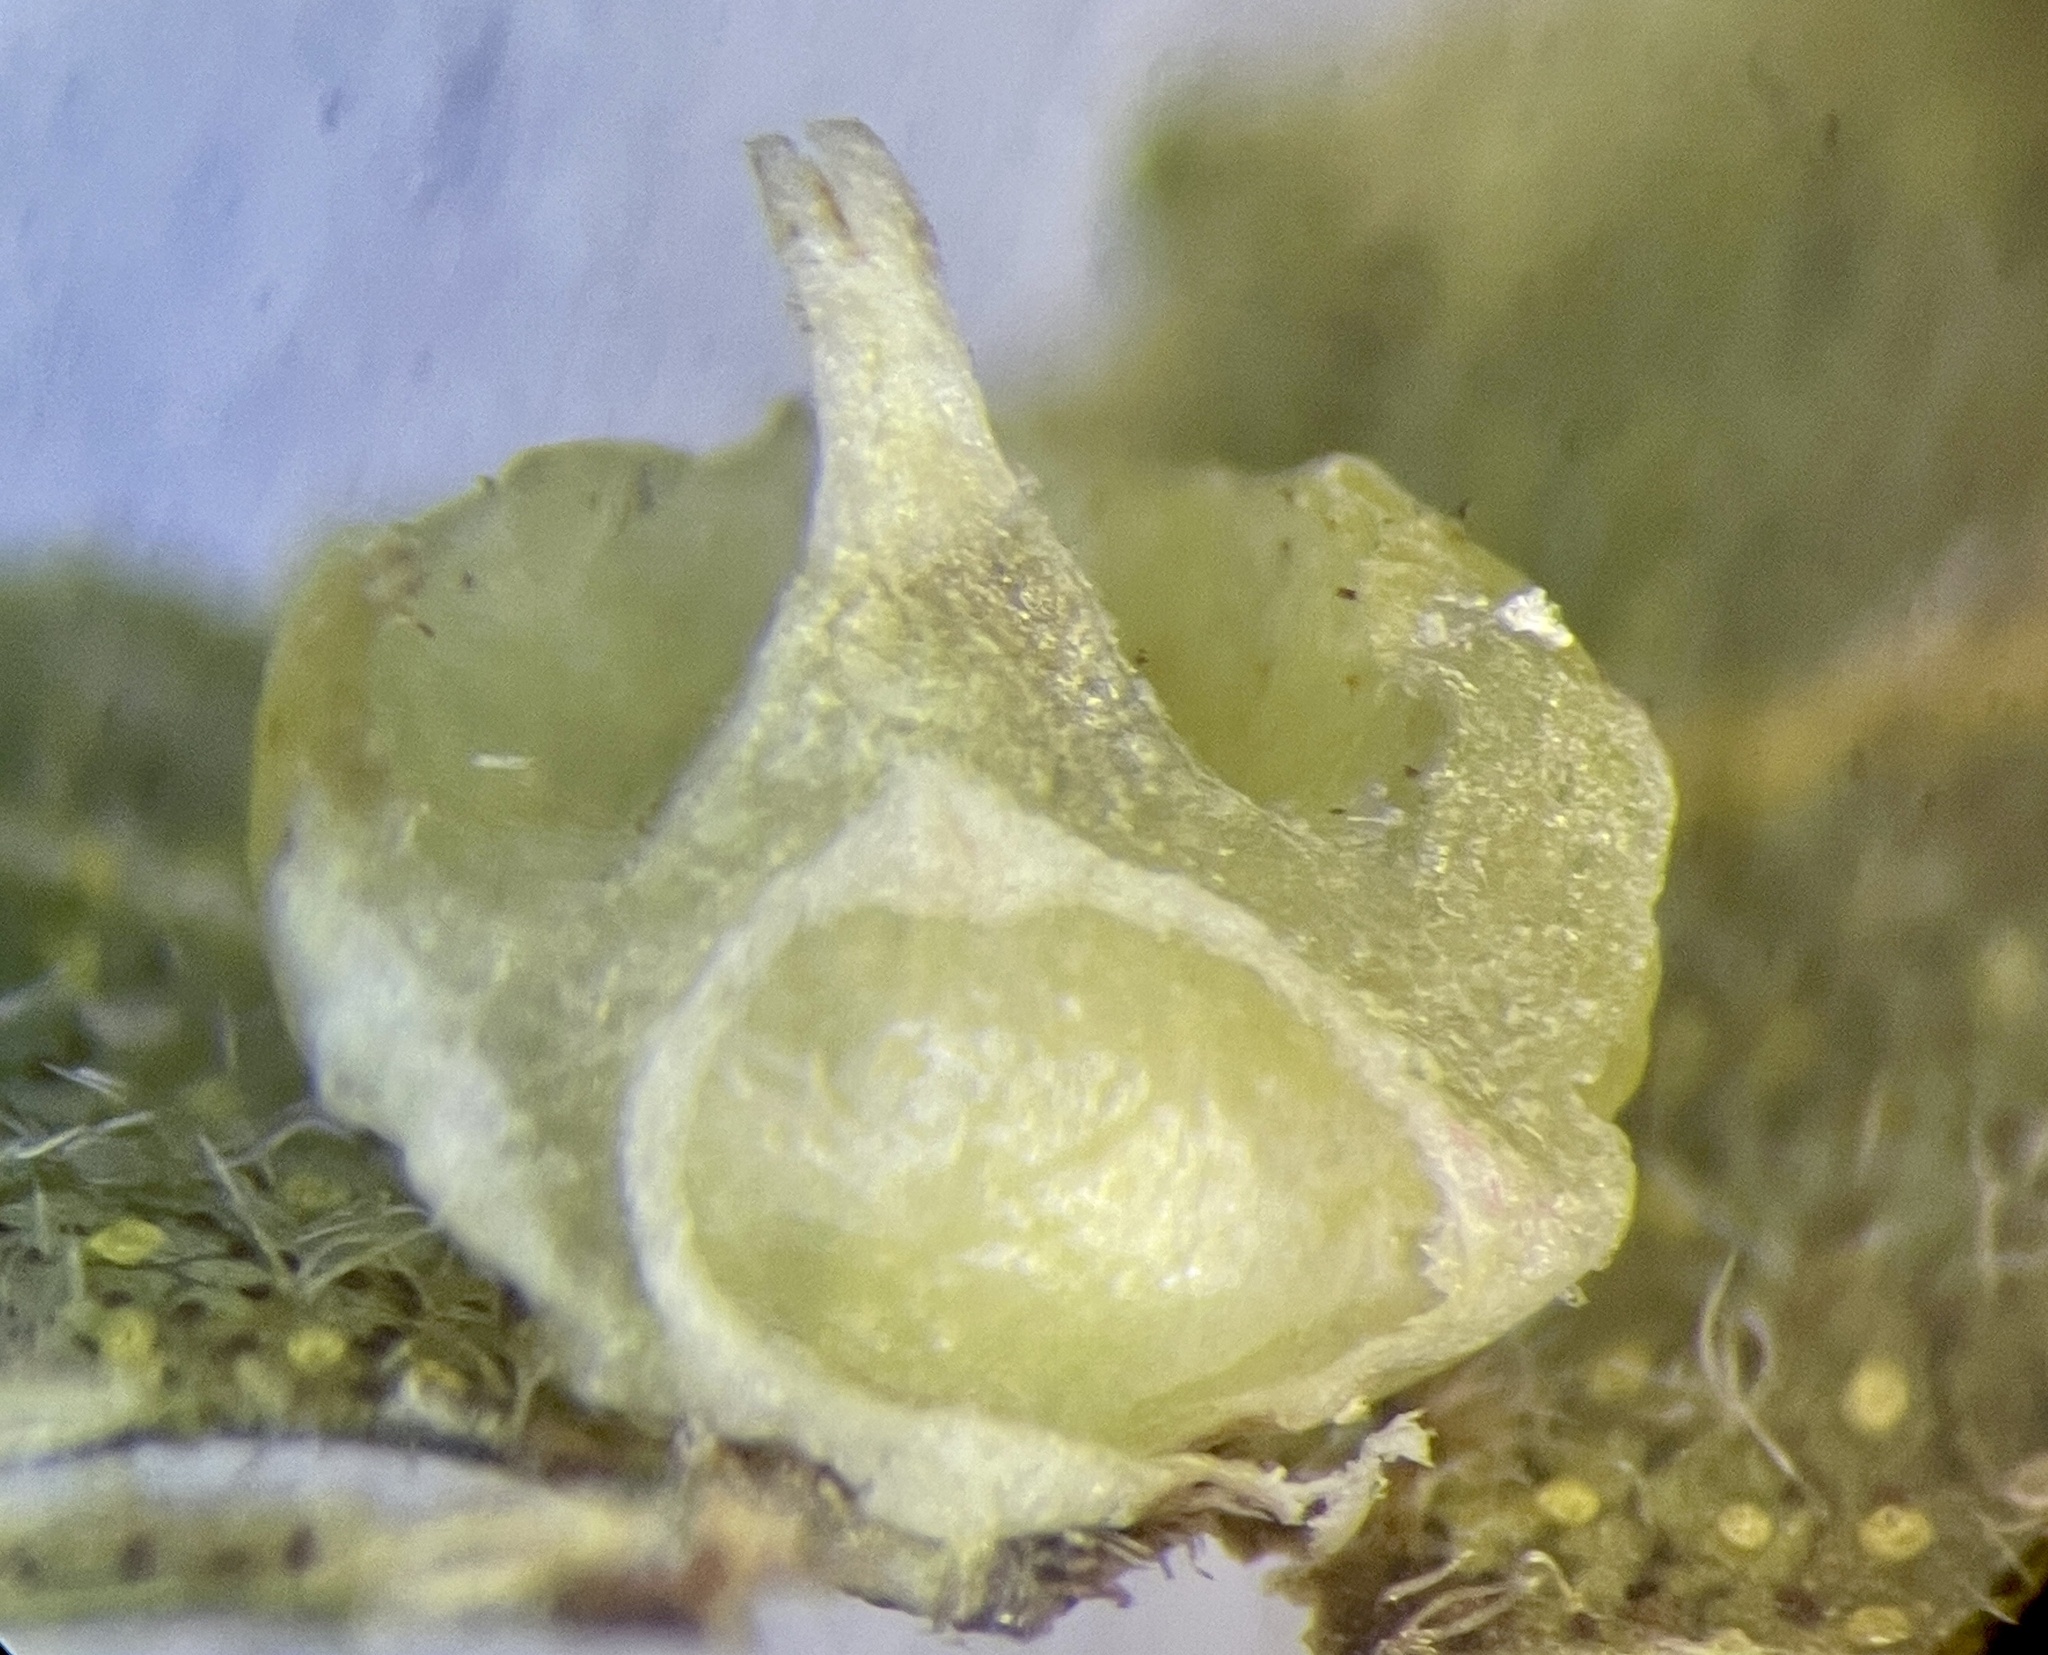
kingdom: Animalia
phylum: Arthropoda
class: Insecta
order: Diptera
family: Cecidomyiidae
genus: Caryomyia
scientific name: Caryomyia arcuata
